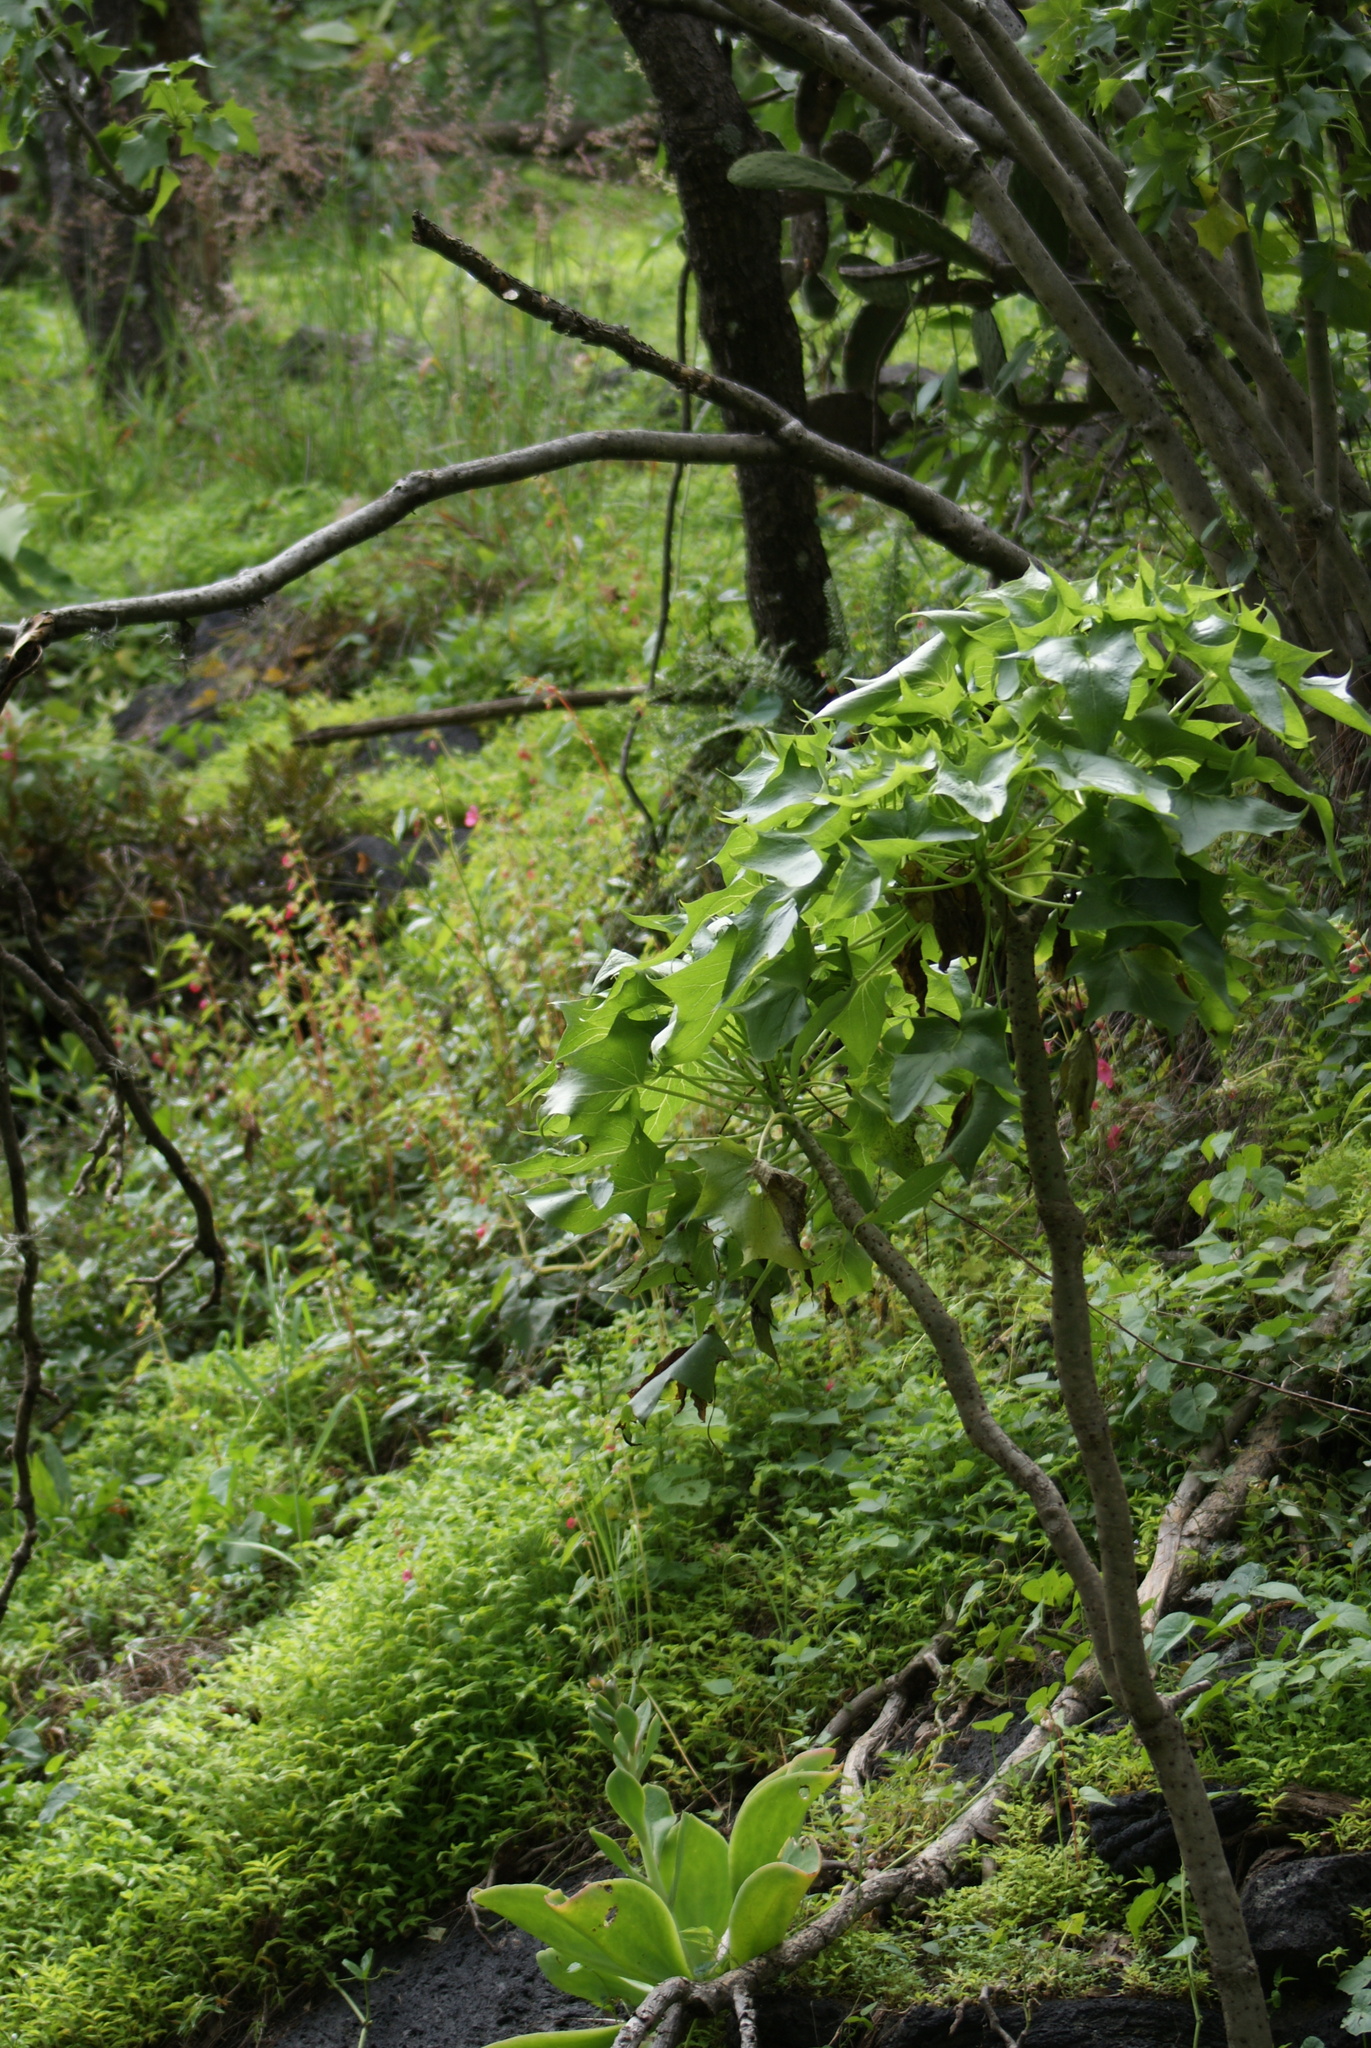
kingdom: Plantae
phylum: Tracheophyta
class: Magnoliopsida
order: Asterales
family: Asteraceae
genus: Pittocaulon
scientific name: Pittocaulon praecox
